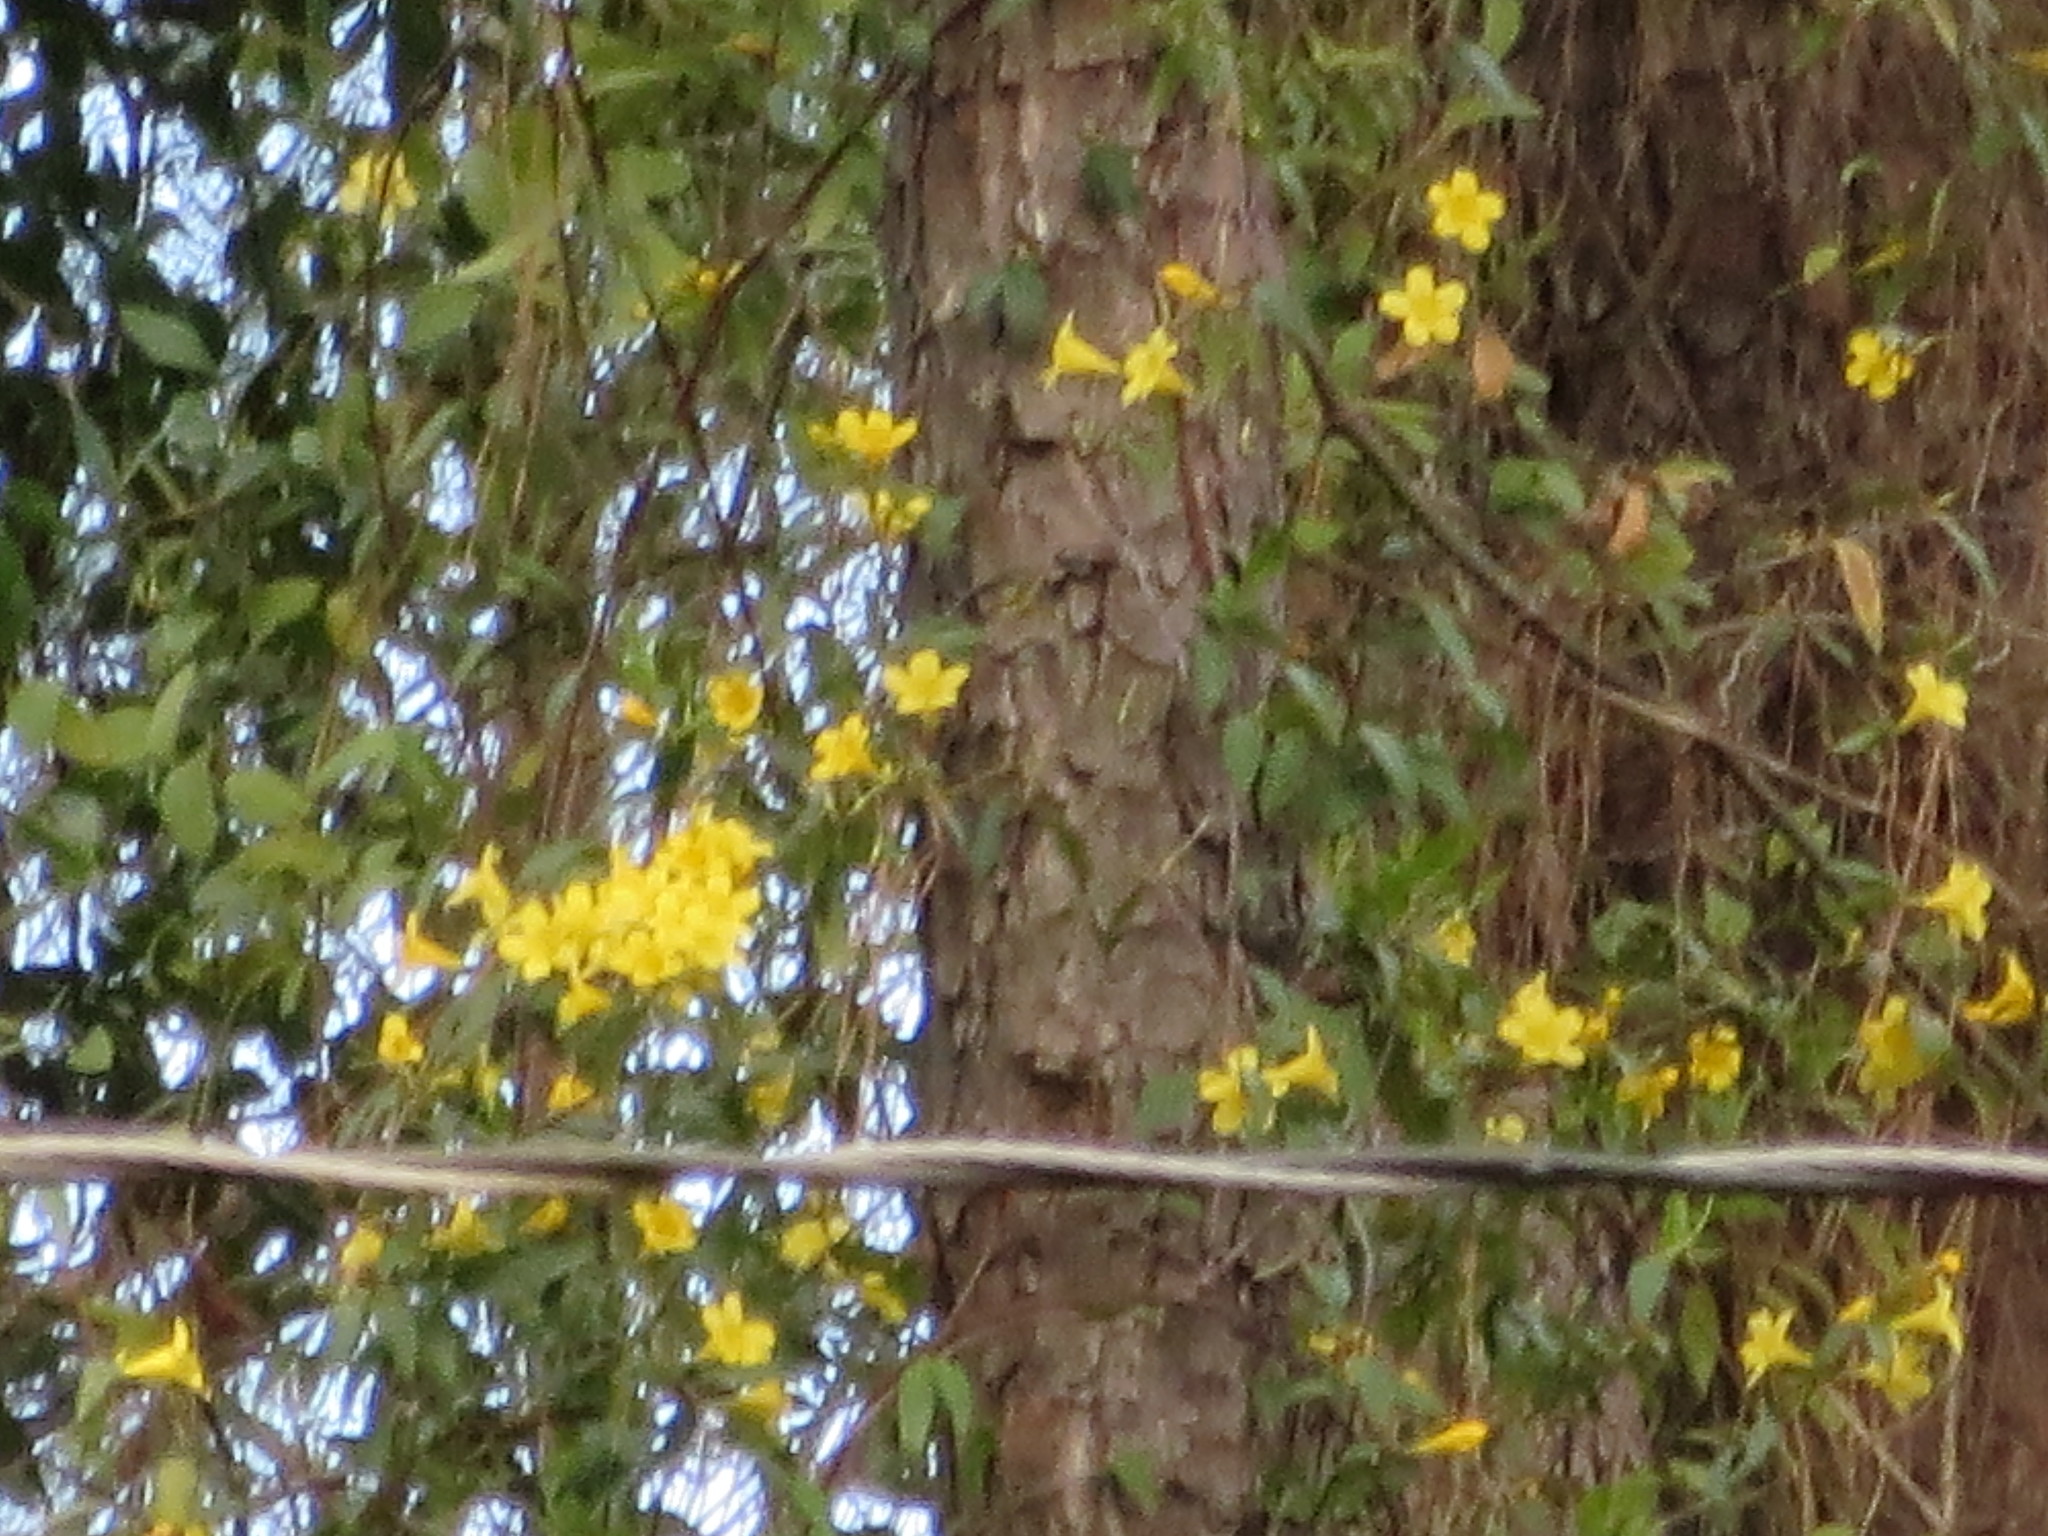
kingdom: Plantae
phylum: Tracheophyta
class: Magnoliopsida
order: Gentianales
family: Gelsemiaceae
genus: Gelsemium
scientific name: Gelsemium sempervirens
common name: Carolina-jasmine
